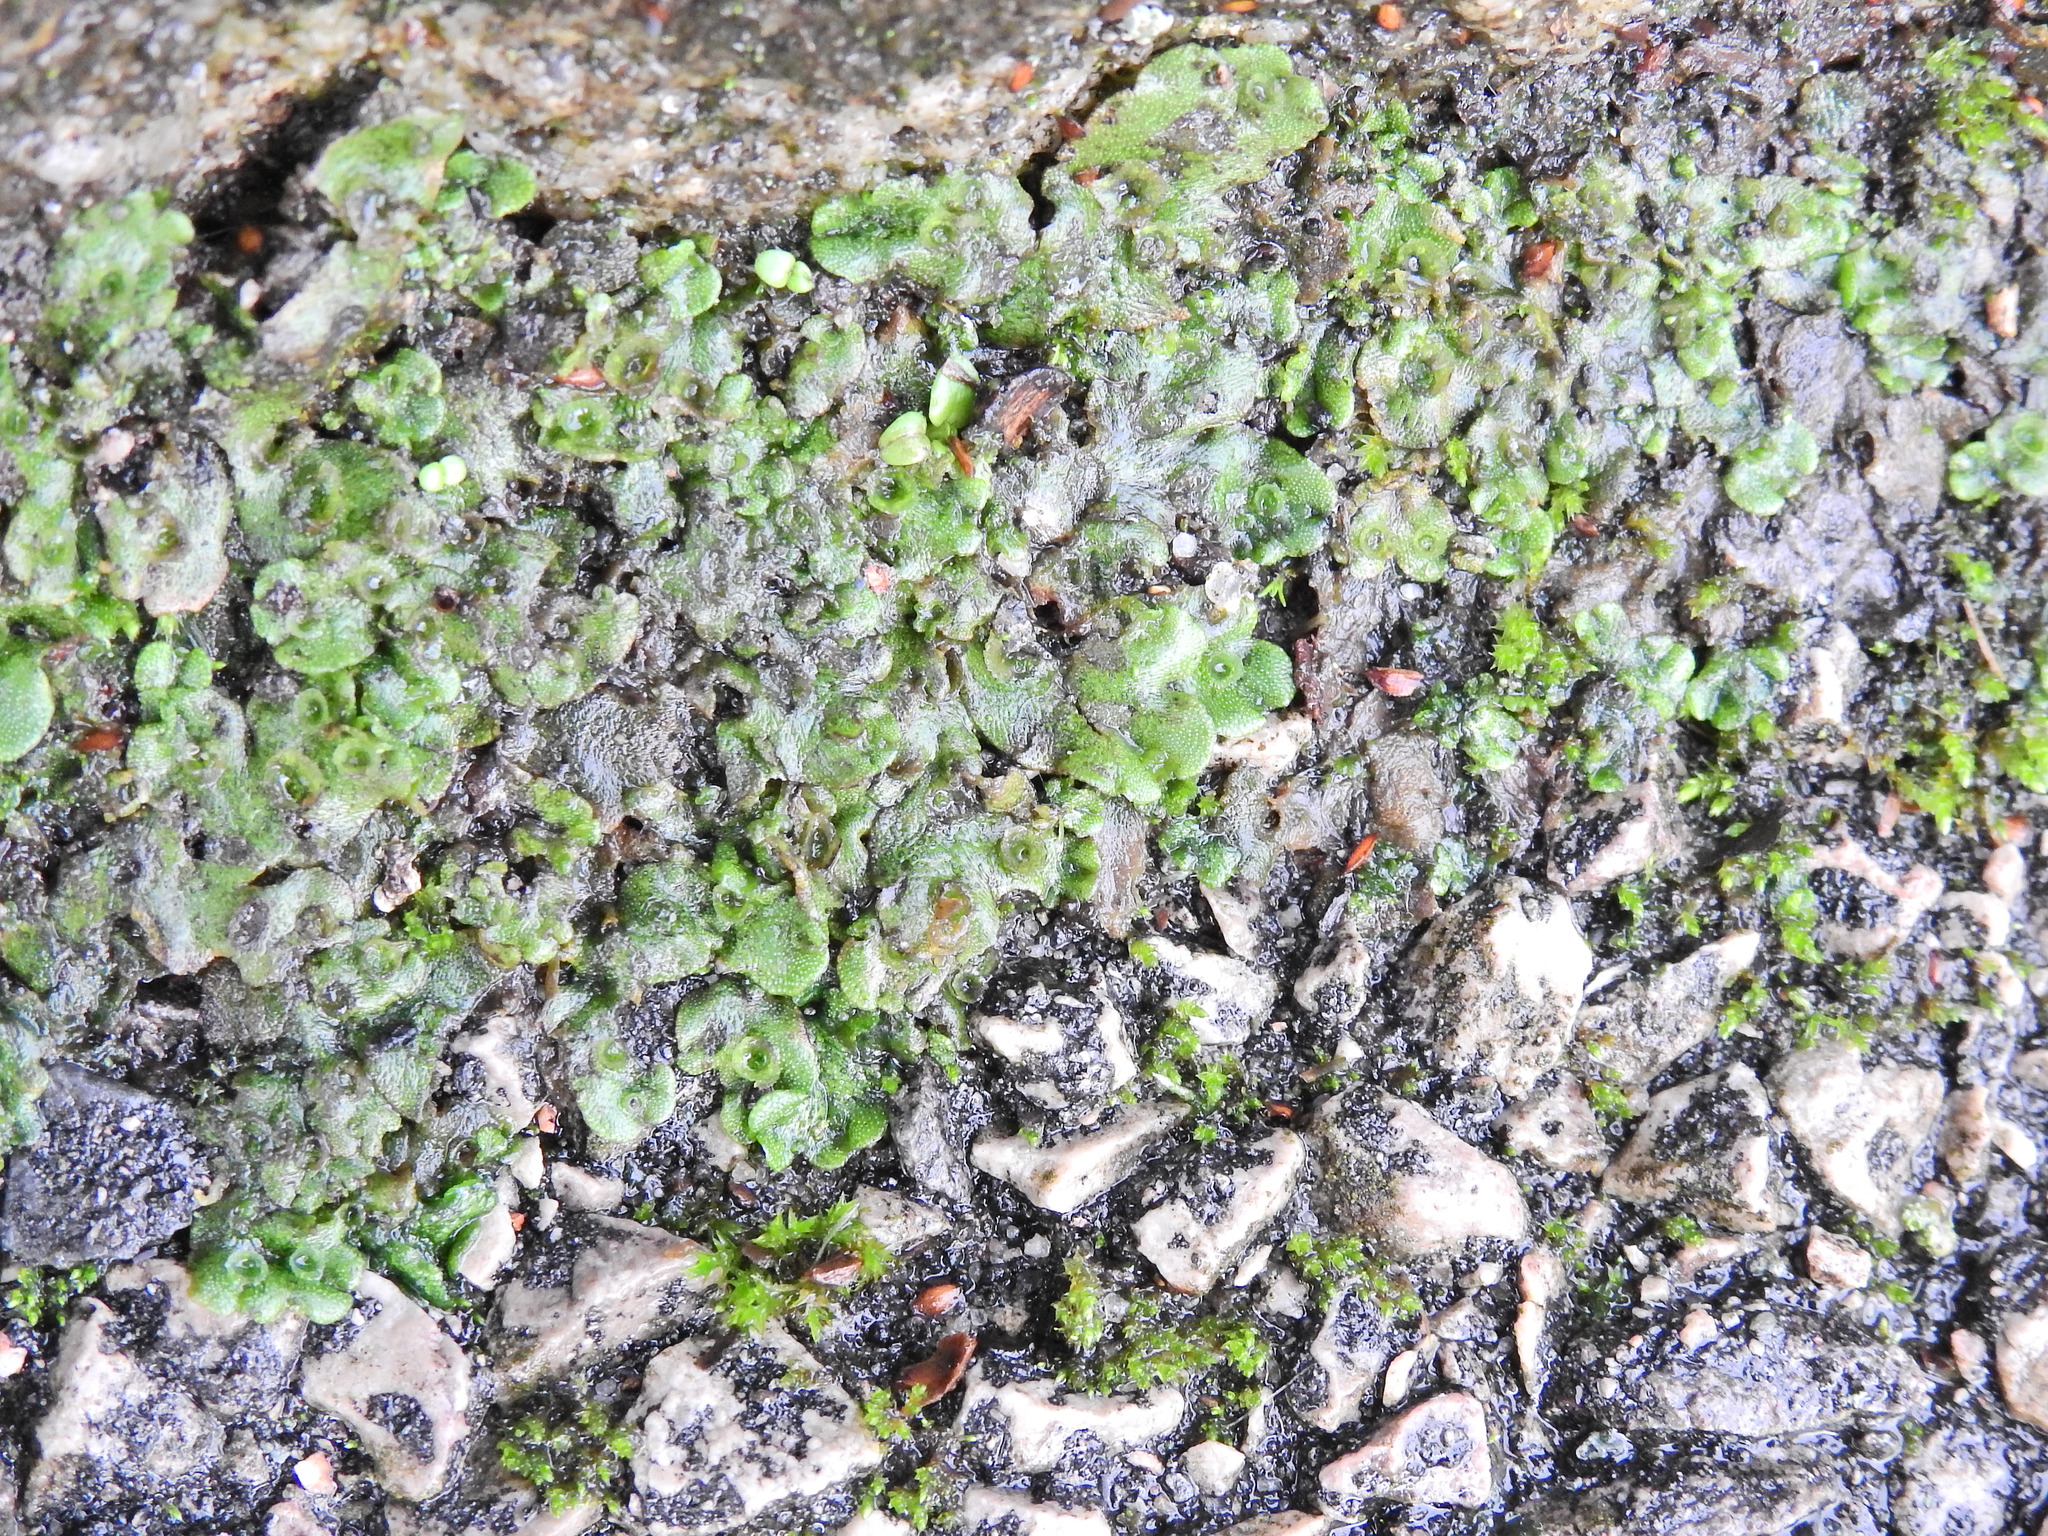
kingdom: Plantae
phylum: Marchantiophyta
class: Marchantiopsida
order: Marchantiales
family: Marchantiaceae
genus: Marchantia
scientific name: Marchantia polymorpha
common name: Common liverwort
